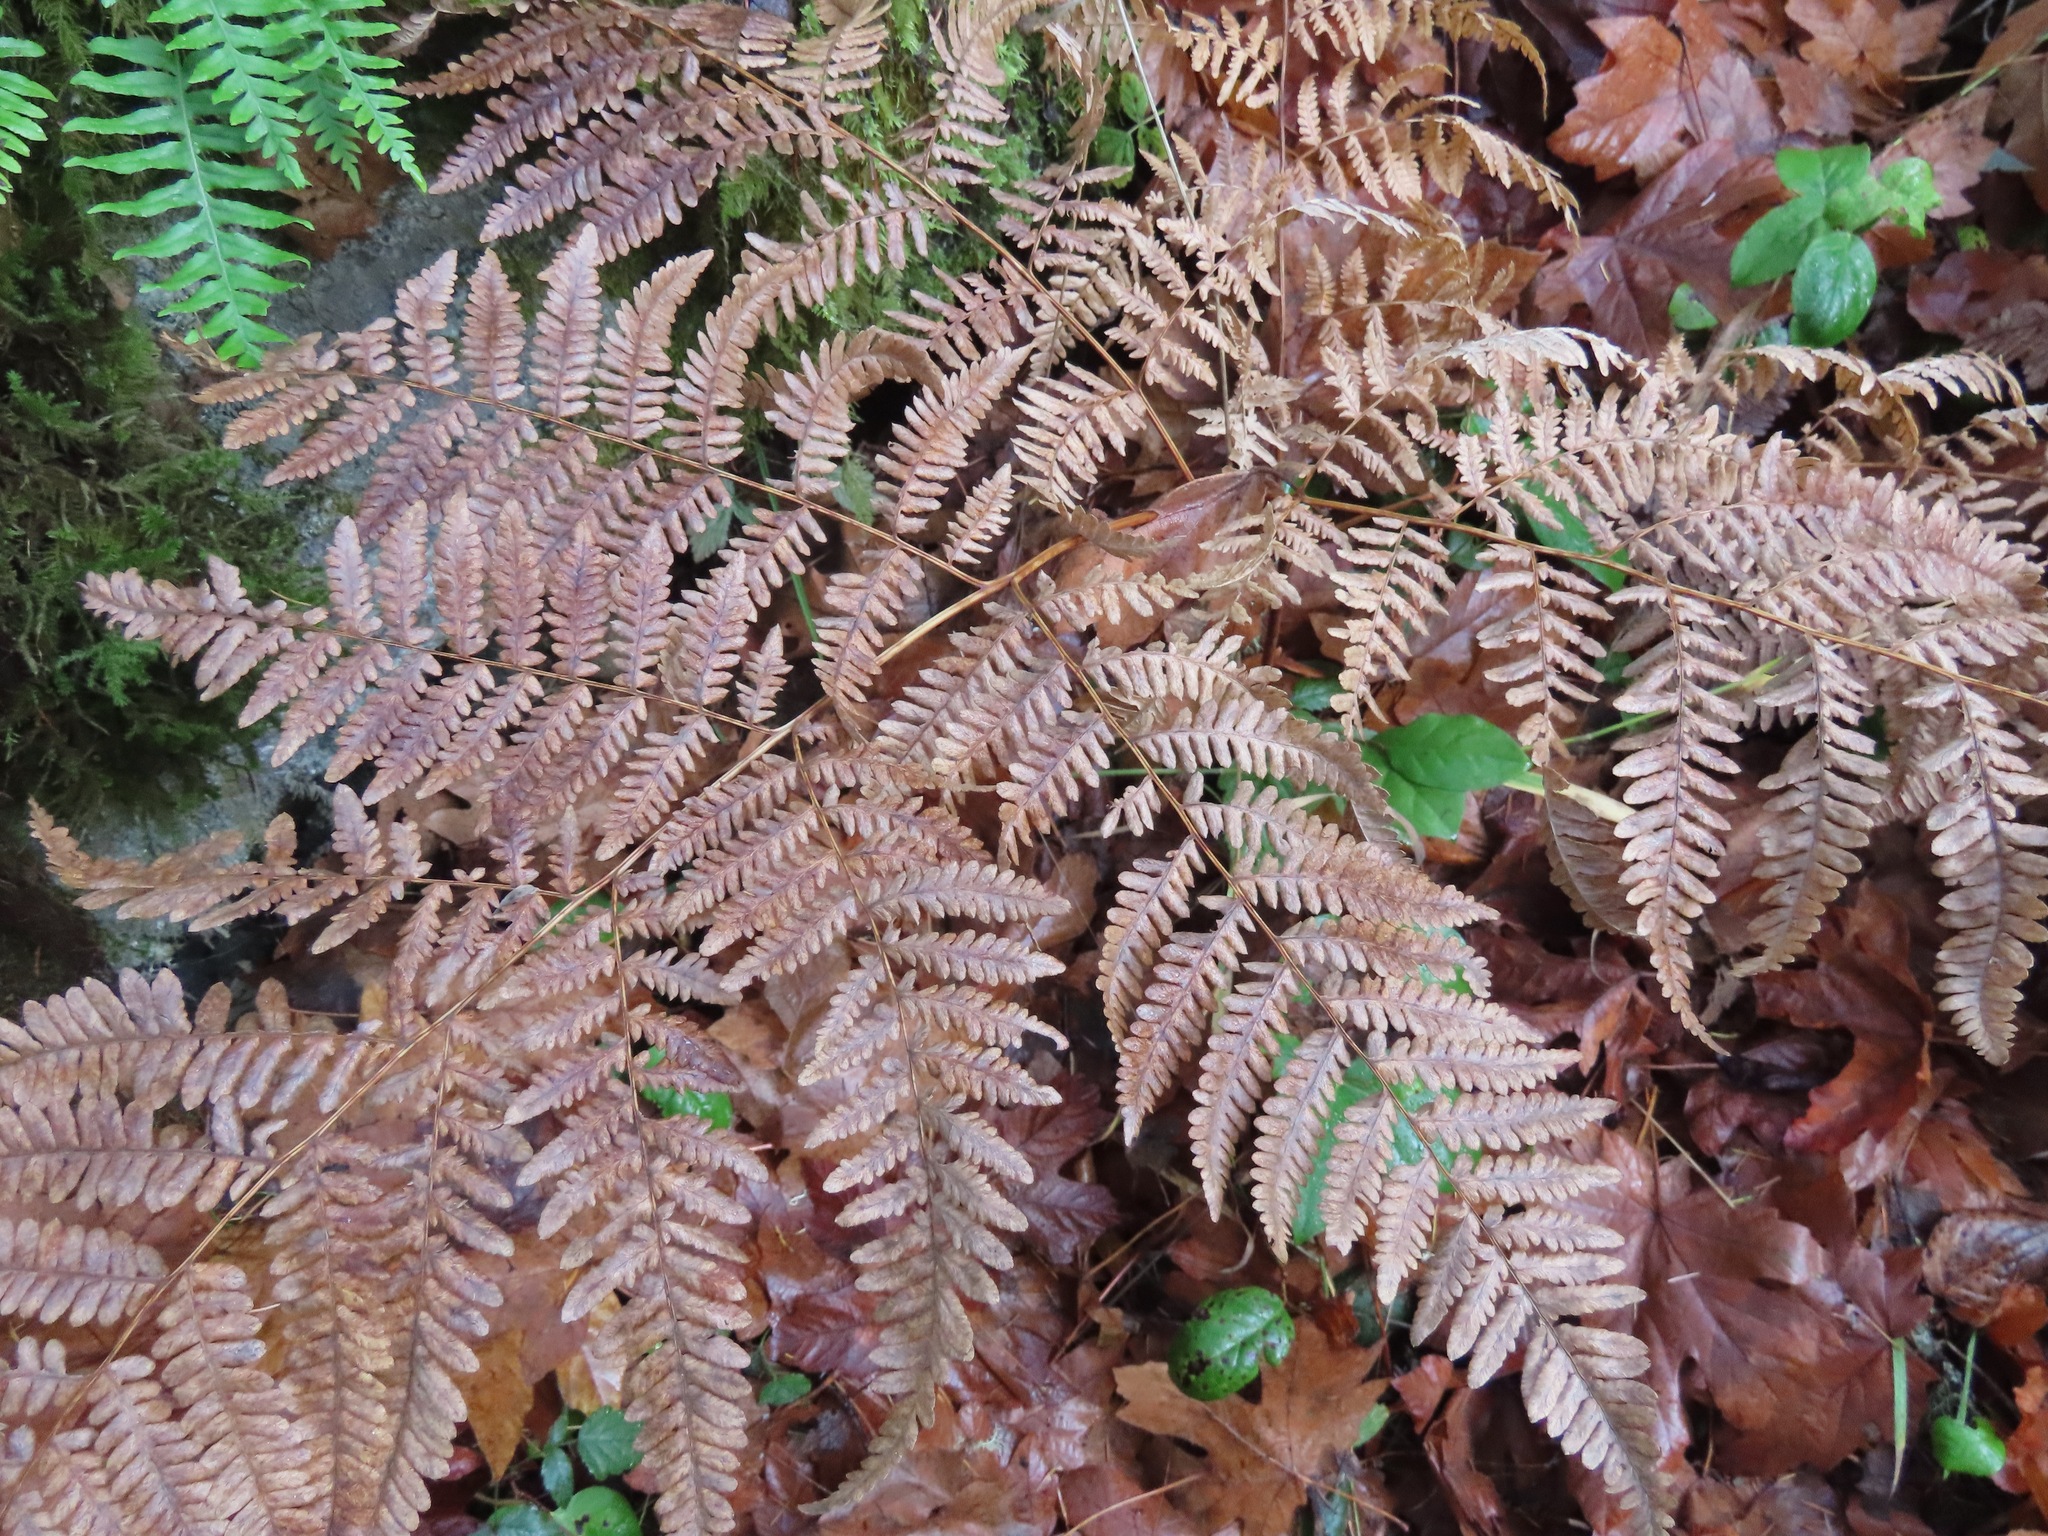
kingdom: Plantae
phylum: Tracheophyta
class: Polypodiopsida
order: Polypodiales
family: Dennstaedtiaceae
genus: Pteridium
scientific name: Pteridium aquilinum
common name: Bracken
